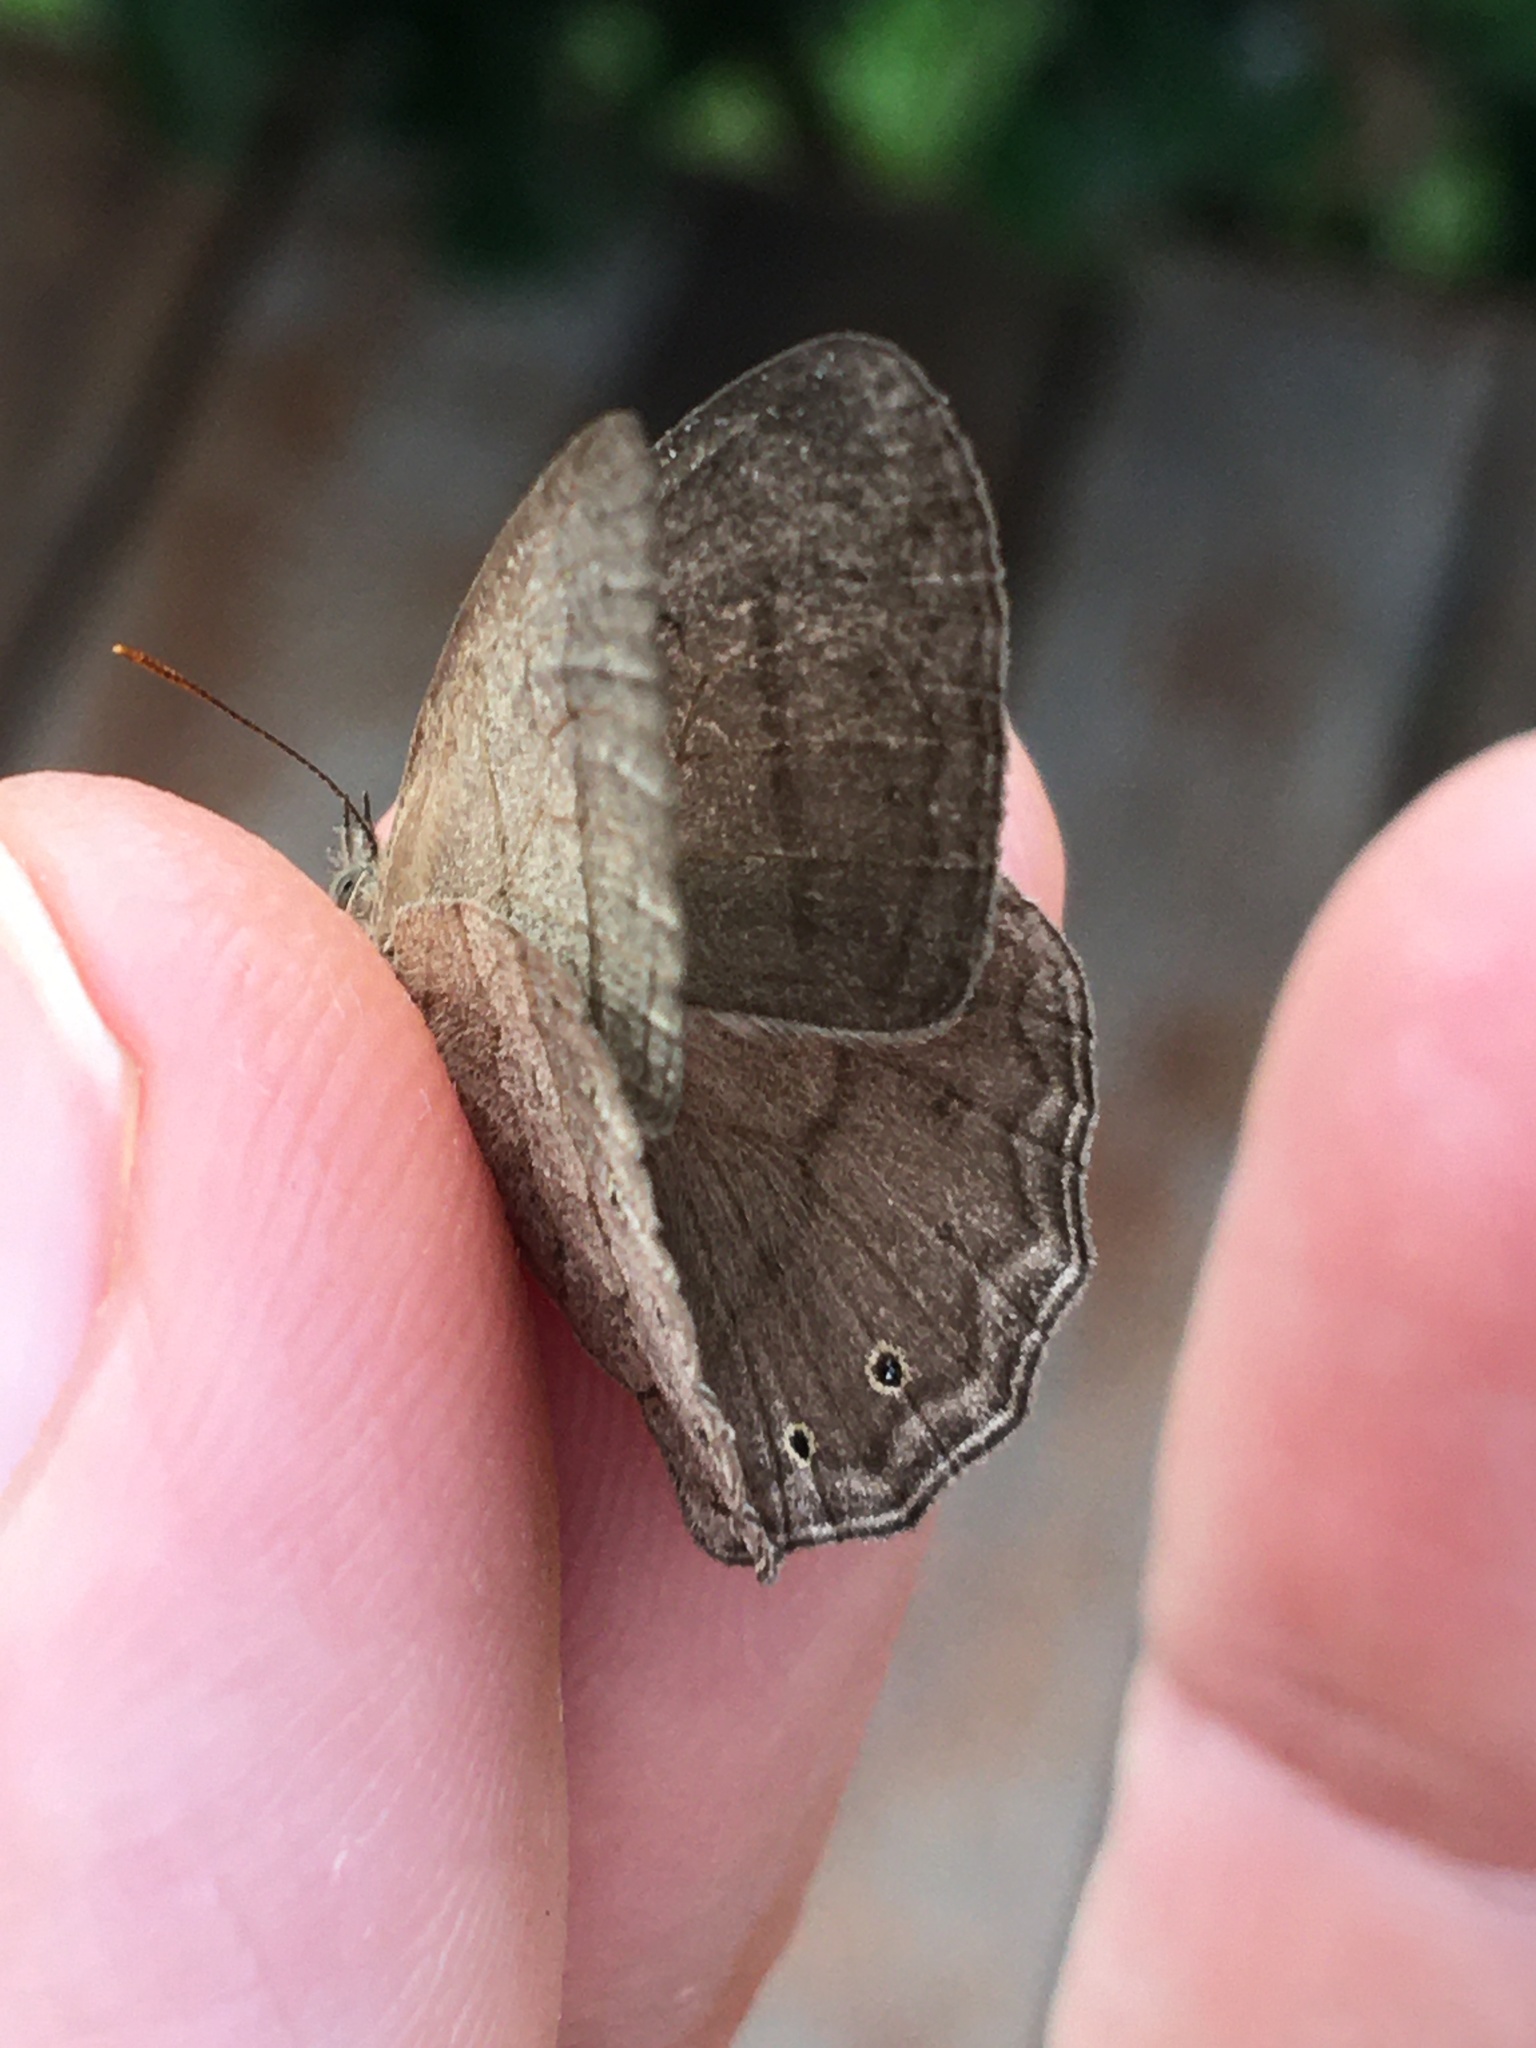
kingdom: Animalia
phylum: Arthropoda
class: Insecta
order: Lepidoptera
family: Nymphalidae
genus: Paryphthimoides
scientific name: Paryphthimoides poltys
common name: Poltys satyr
